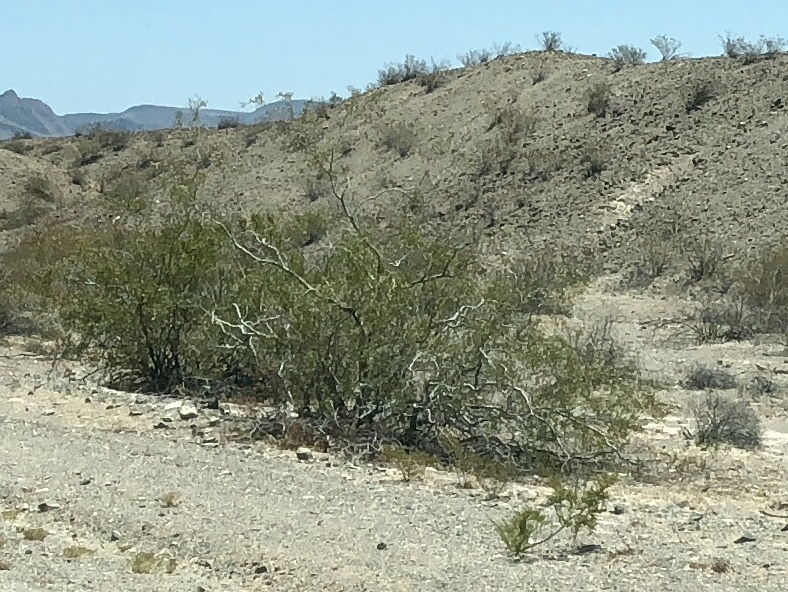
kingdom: Plantae
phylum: Tracheophyta
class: Magnoliopsida
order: Zygophyllales
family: Zygophyllaceae
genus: Larrea
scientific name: Larrea tridentata
